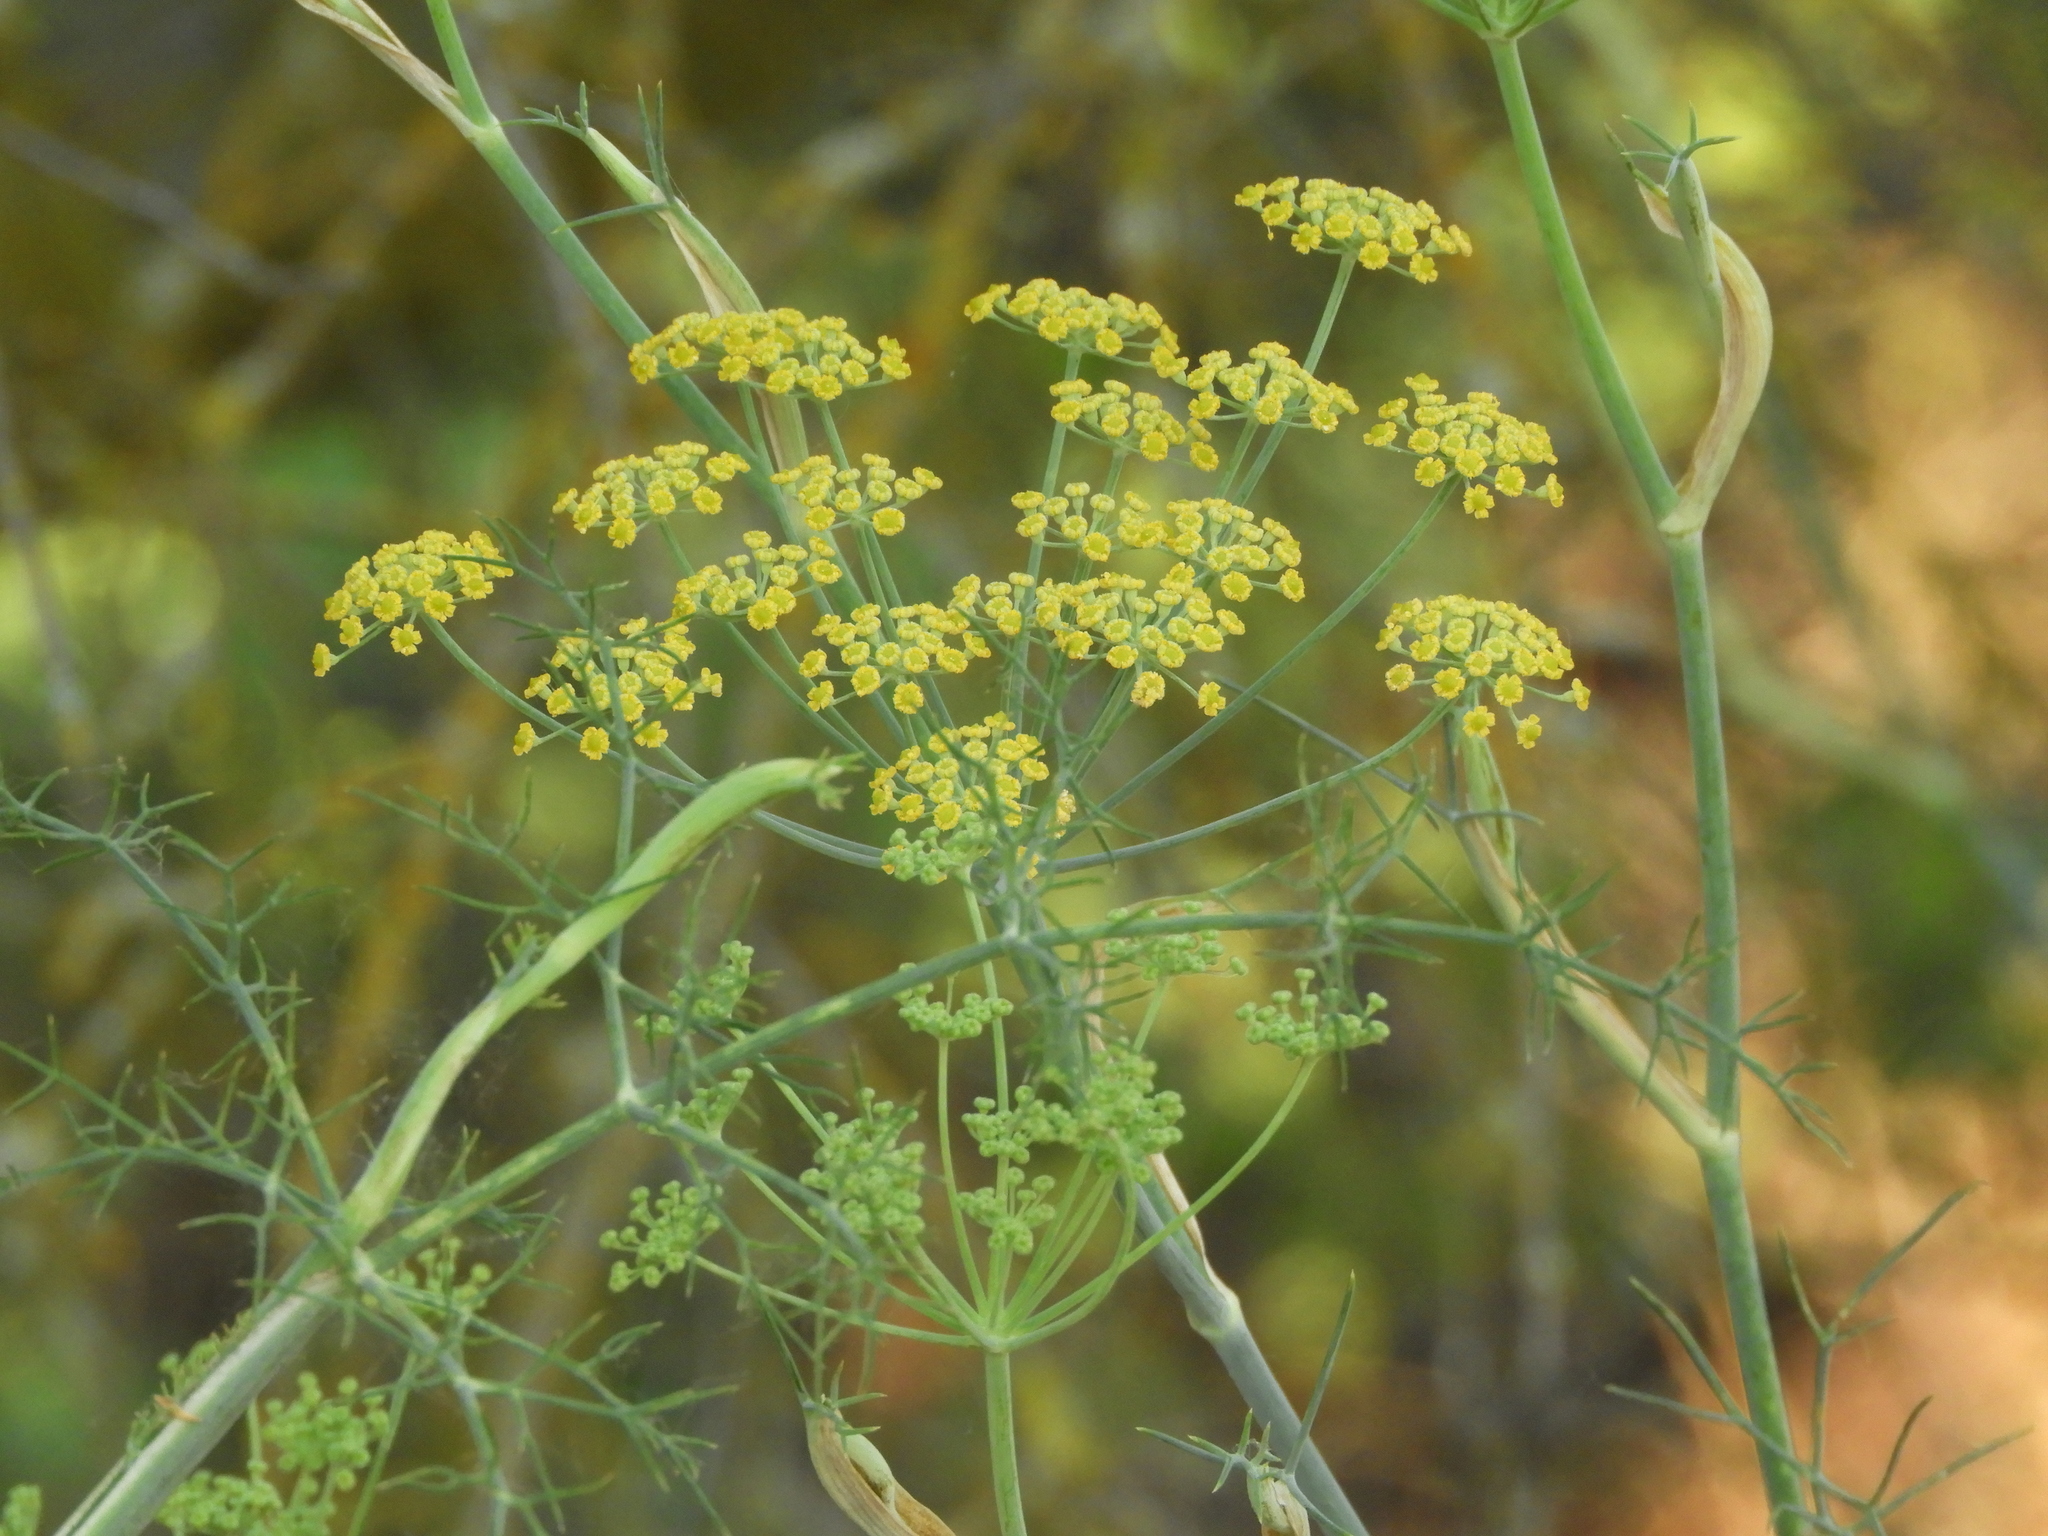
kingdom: Plantae
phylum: Tracheophyta
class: Magnoliopsida
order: Apiales
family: Apiaceae
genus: Foeniculum
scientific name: Foeniculum vulgare
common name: Fennel
